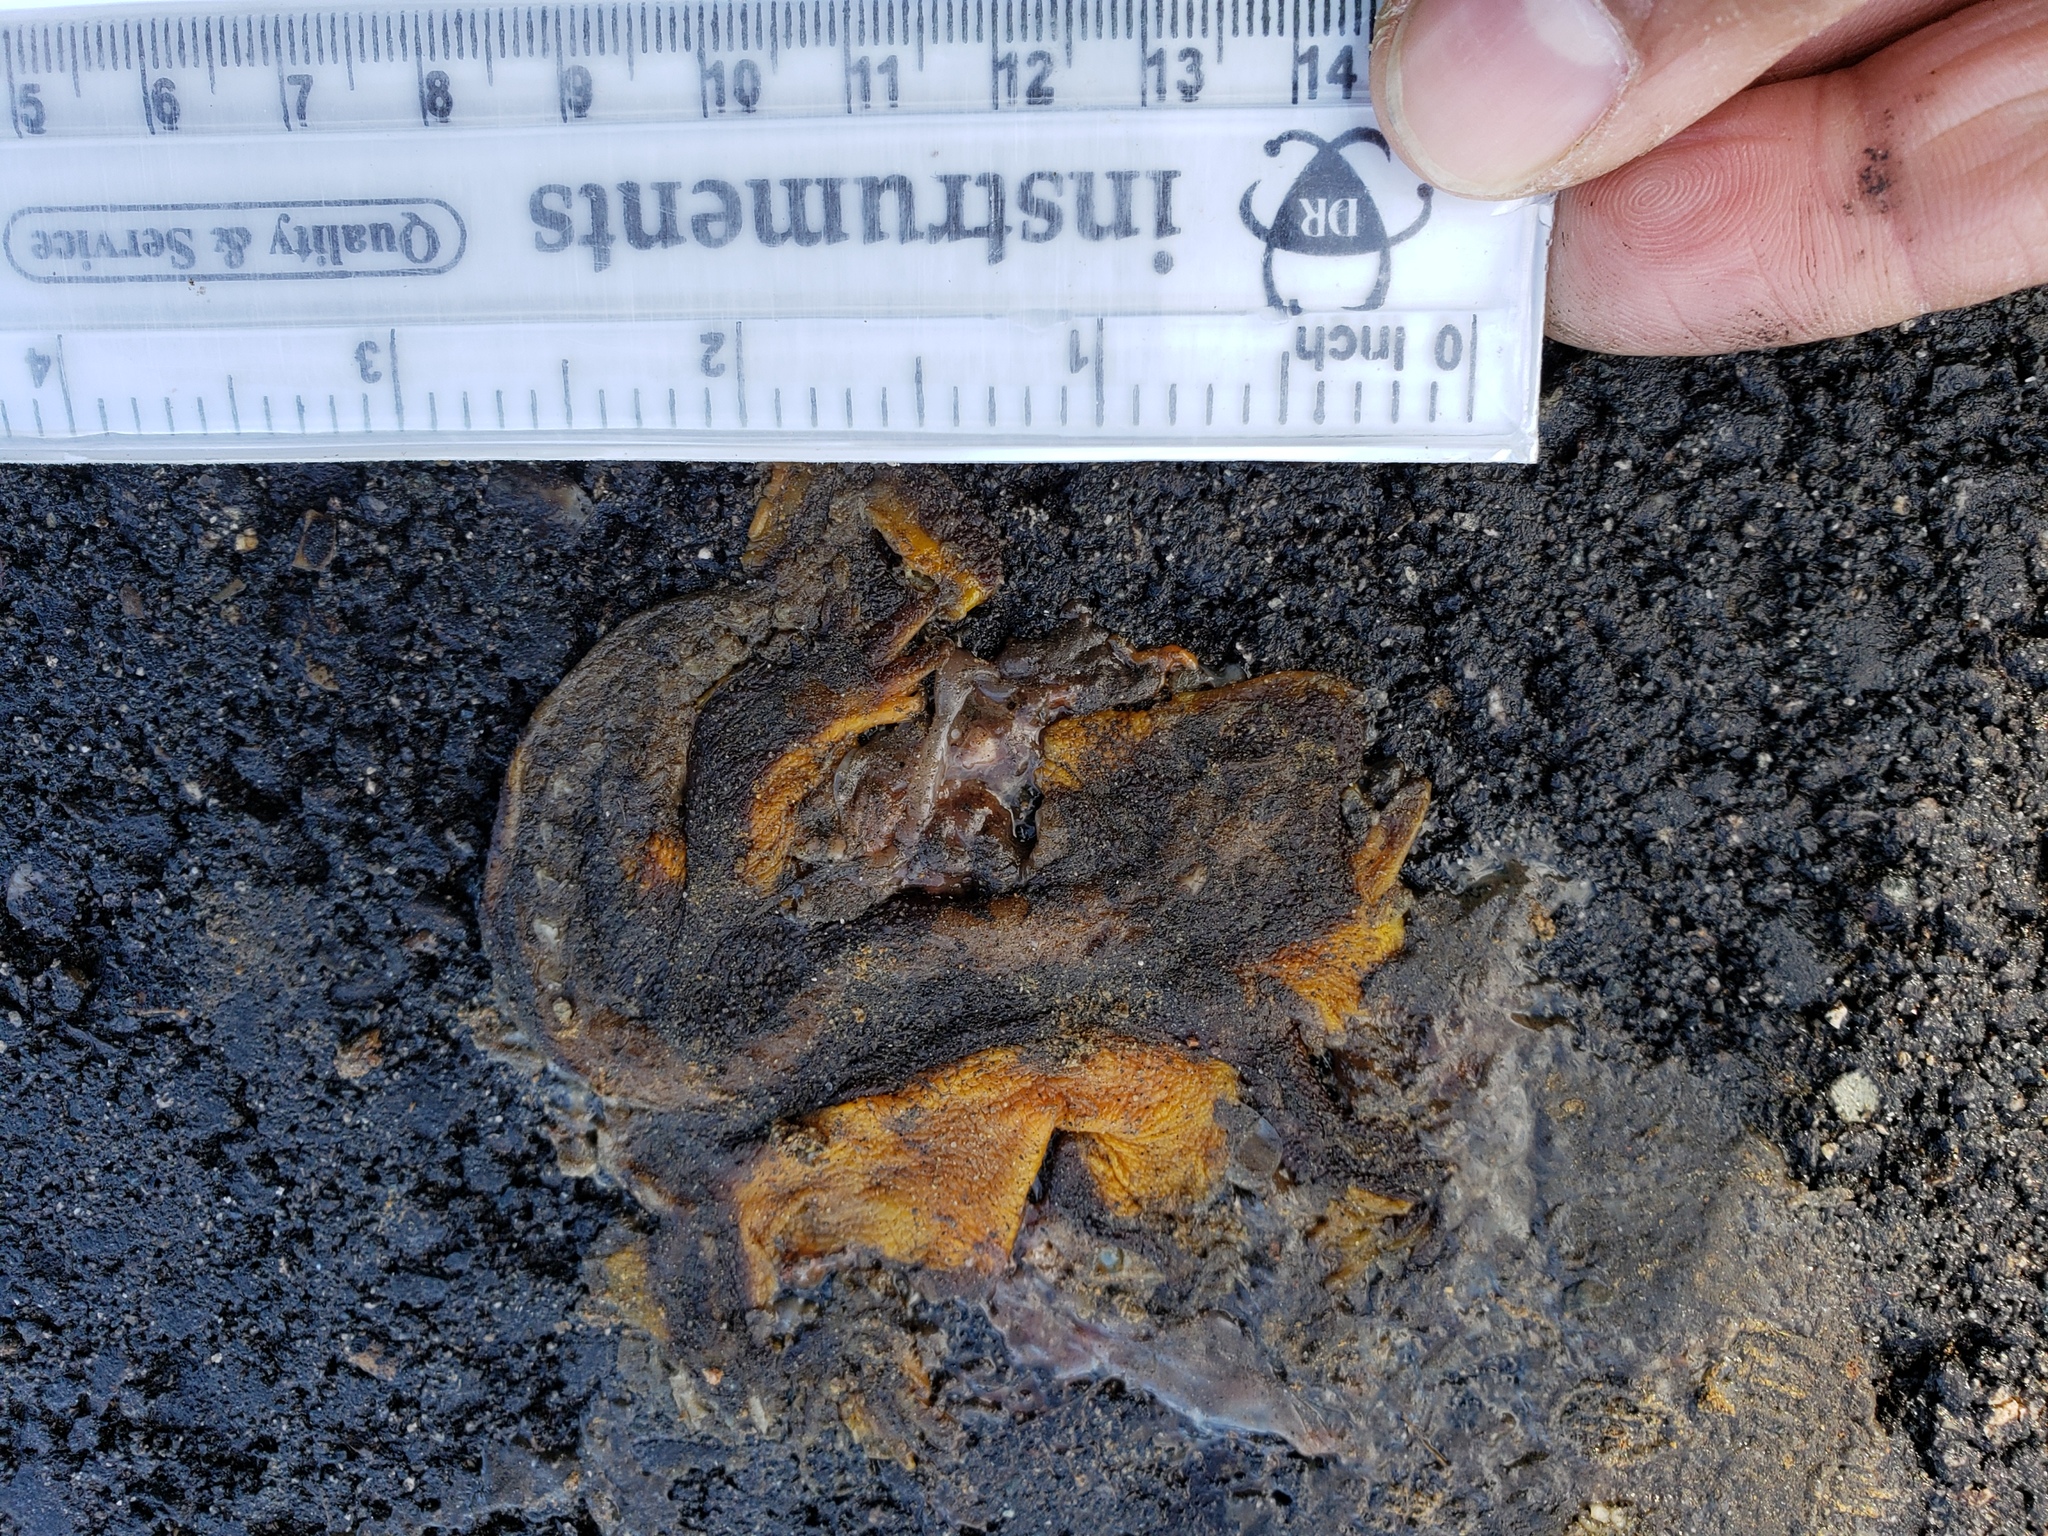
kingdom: Animalia
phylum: Chordata
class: Amphibia
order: Caudata
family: Salamandridae
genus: Taricha
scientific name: Taricha
